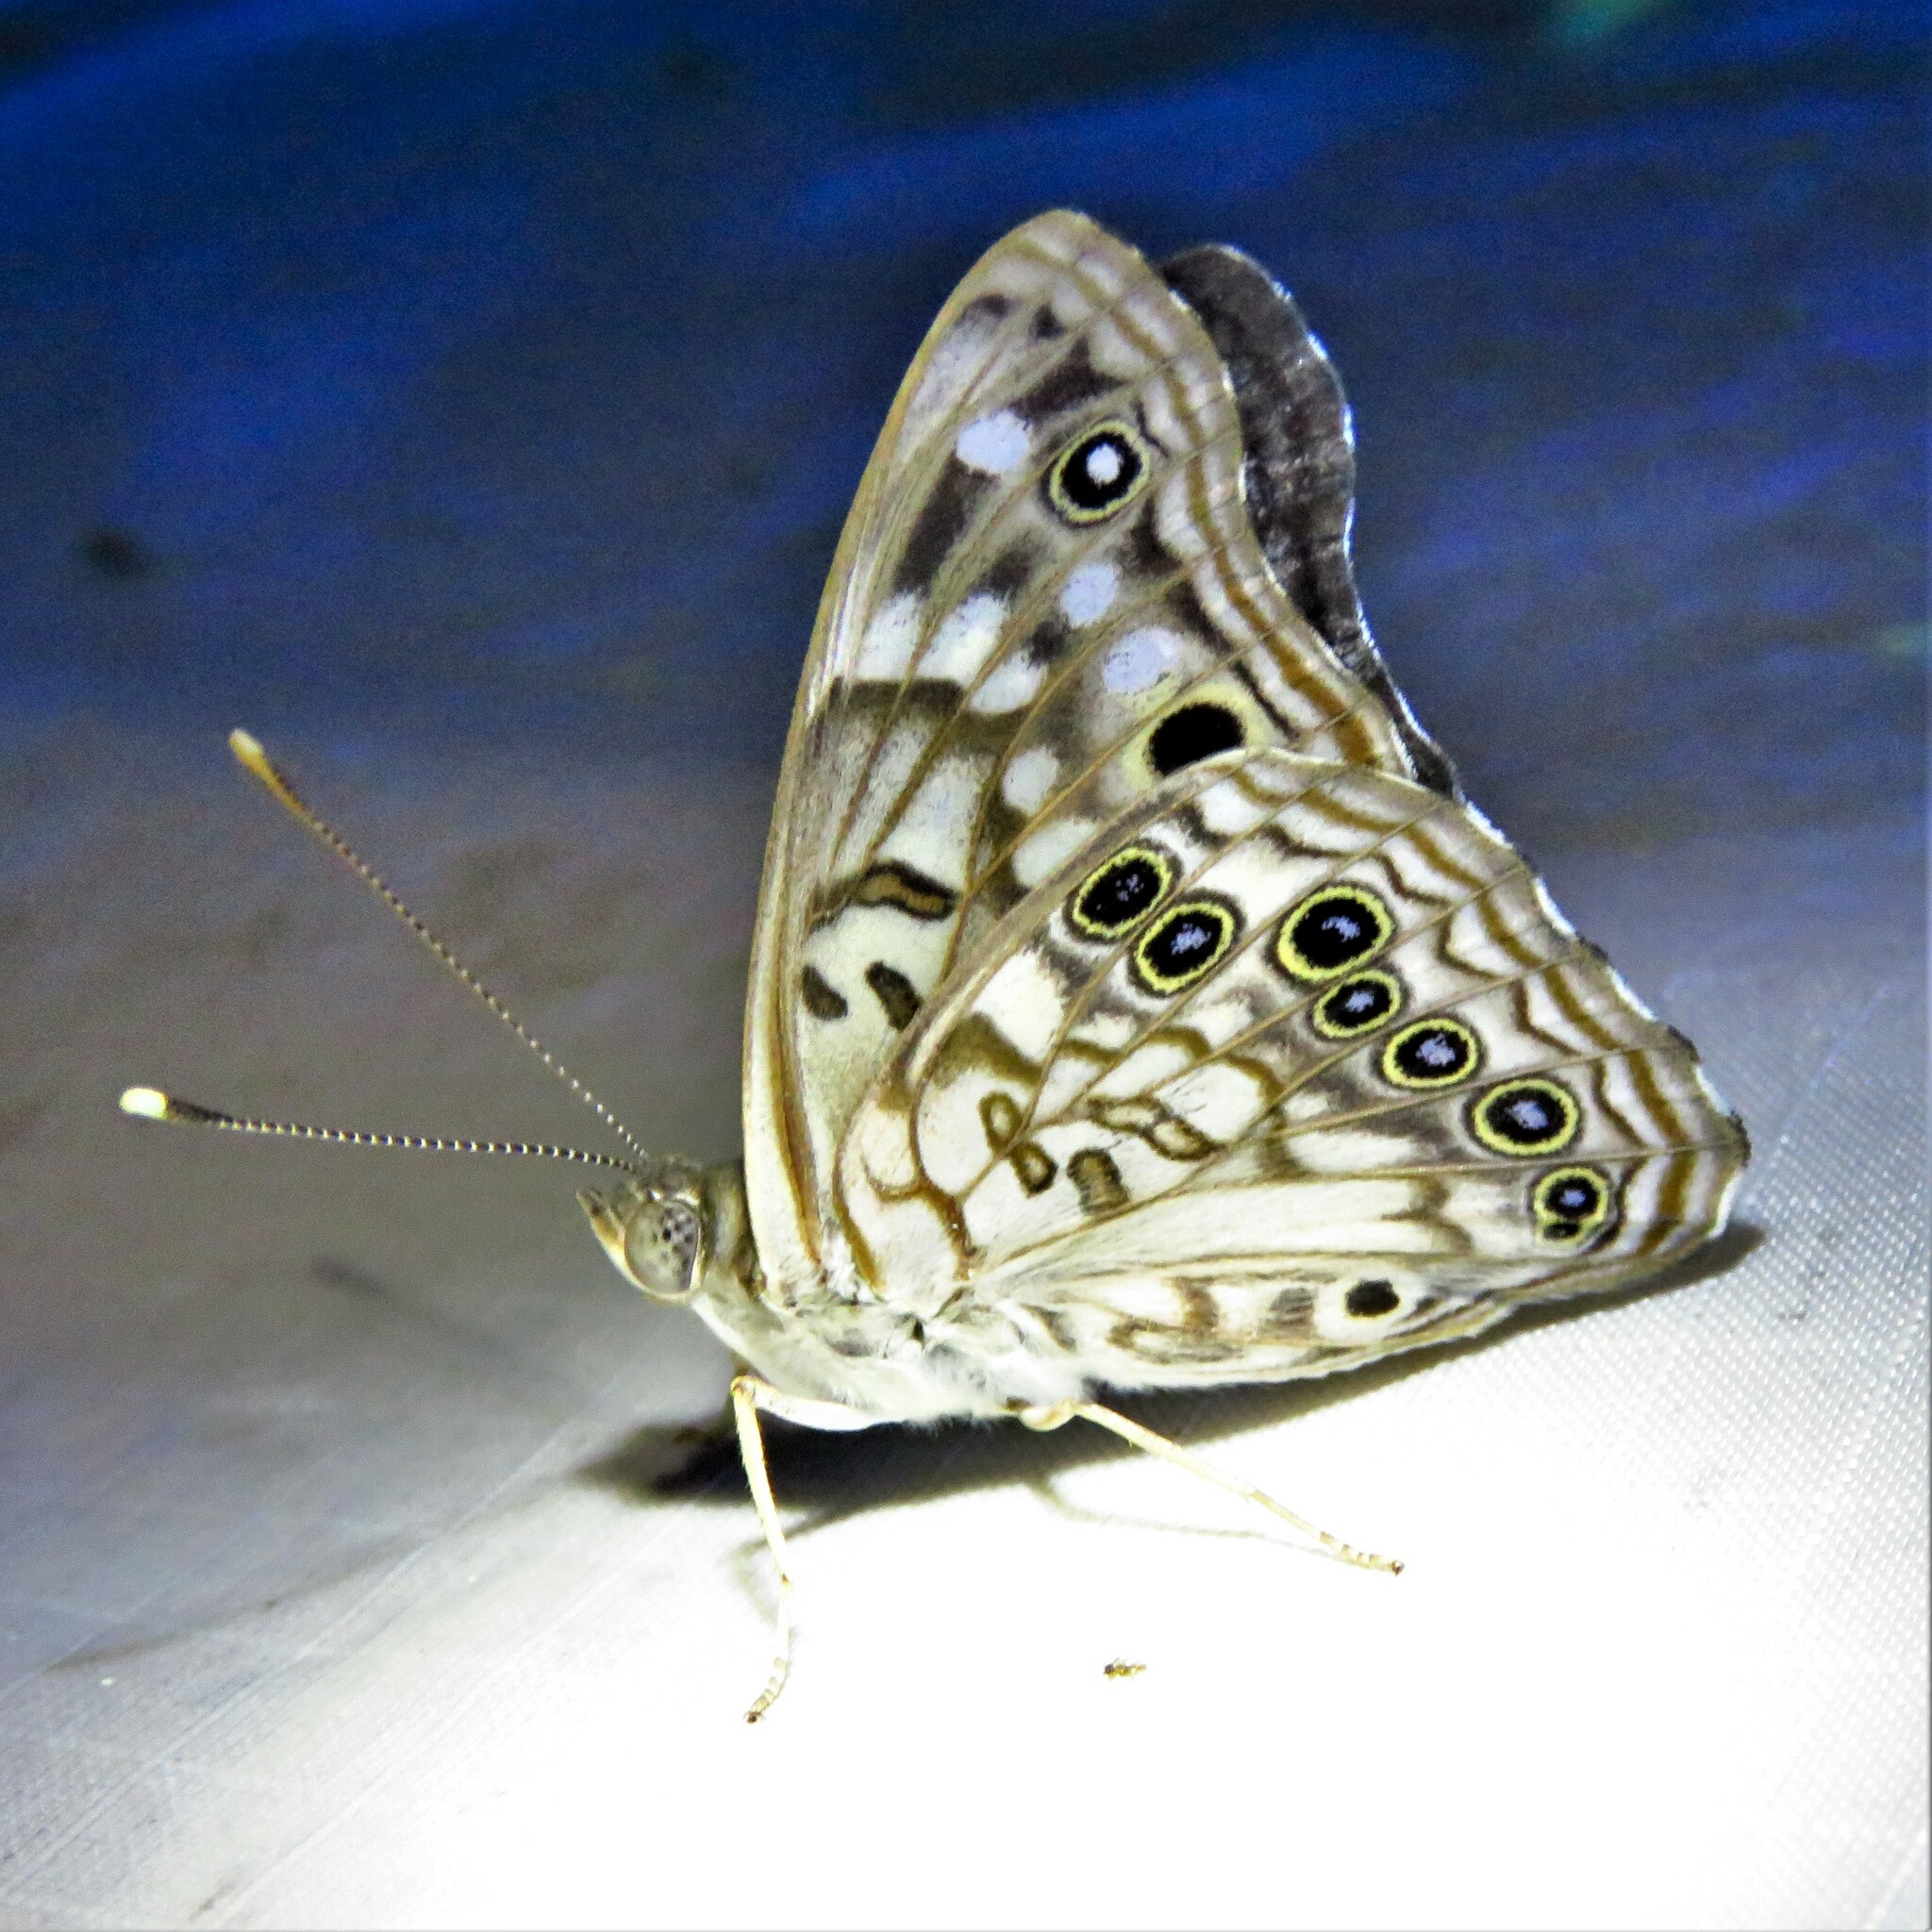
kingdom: Animalia
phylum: Arthropoda
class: Insecta
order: Lepidoptera
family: Nymphalidae
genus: Asterocampa
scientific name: Asterocampa celtis
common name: Hackberry emperor
